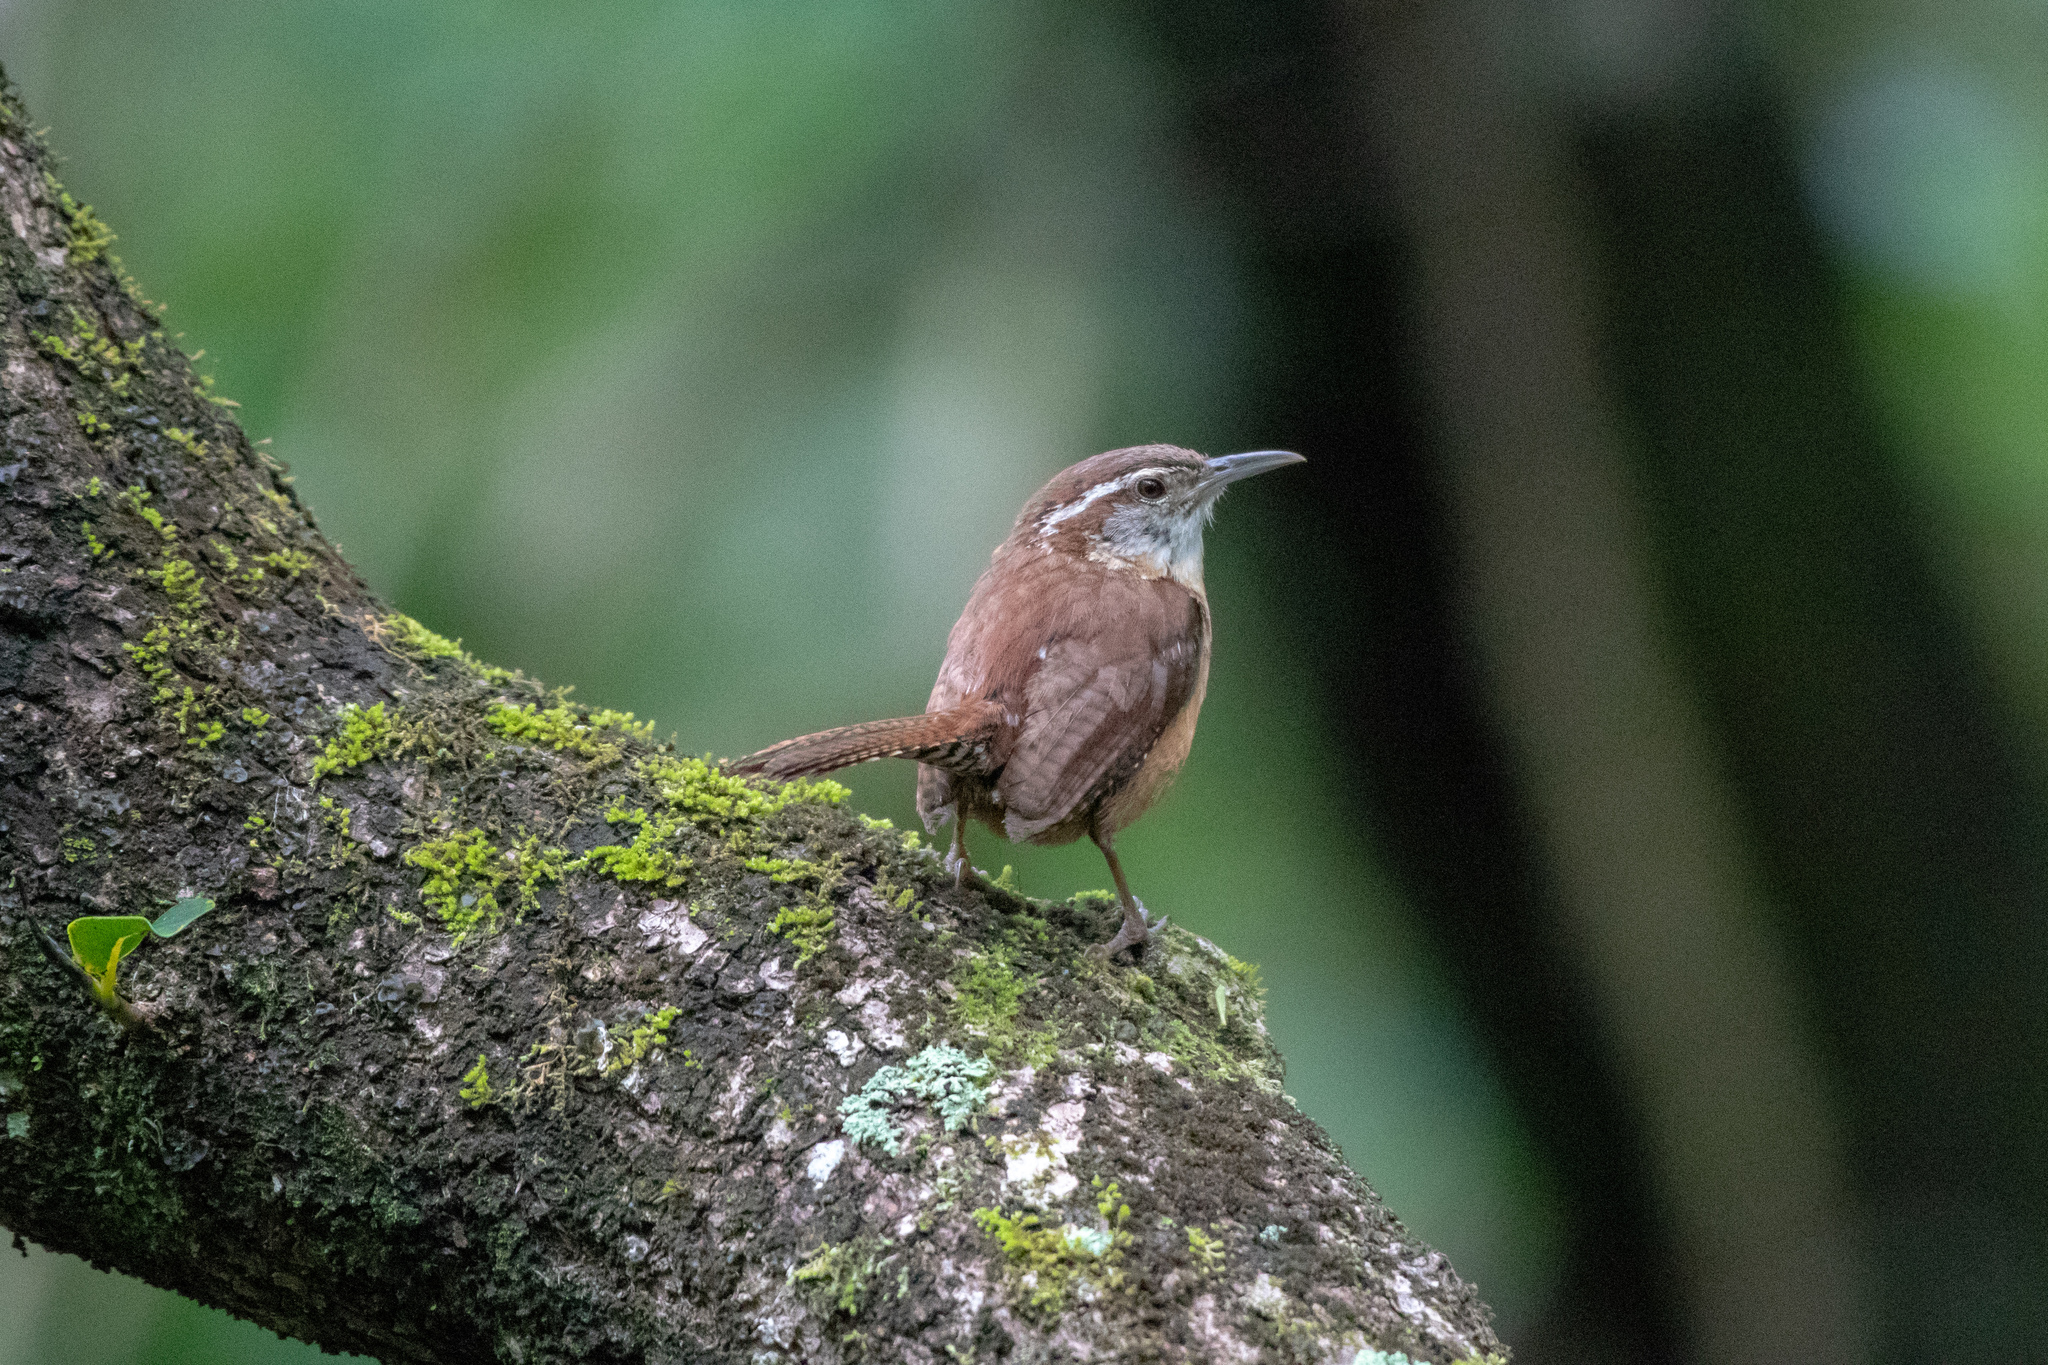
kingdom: Animalia
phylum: Chordata
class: Aves
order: Passeriformes
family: Troglodytidae
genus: Thryothorus
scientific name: Thryothorus ludovicianus
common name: Carolina wren
